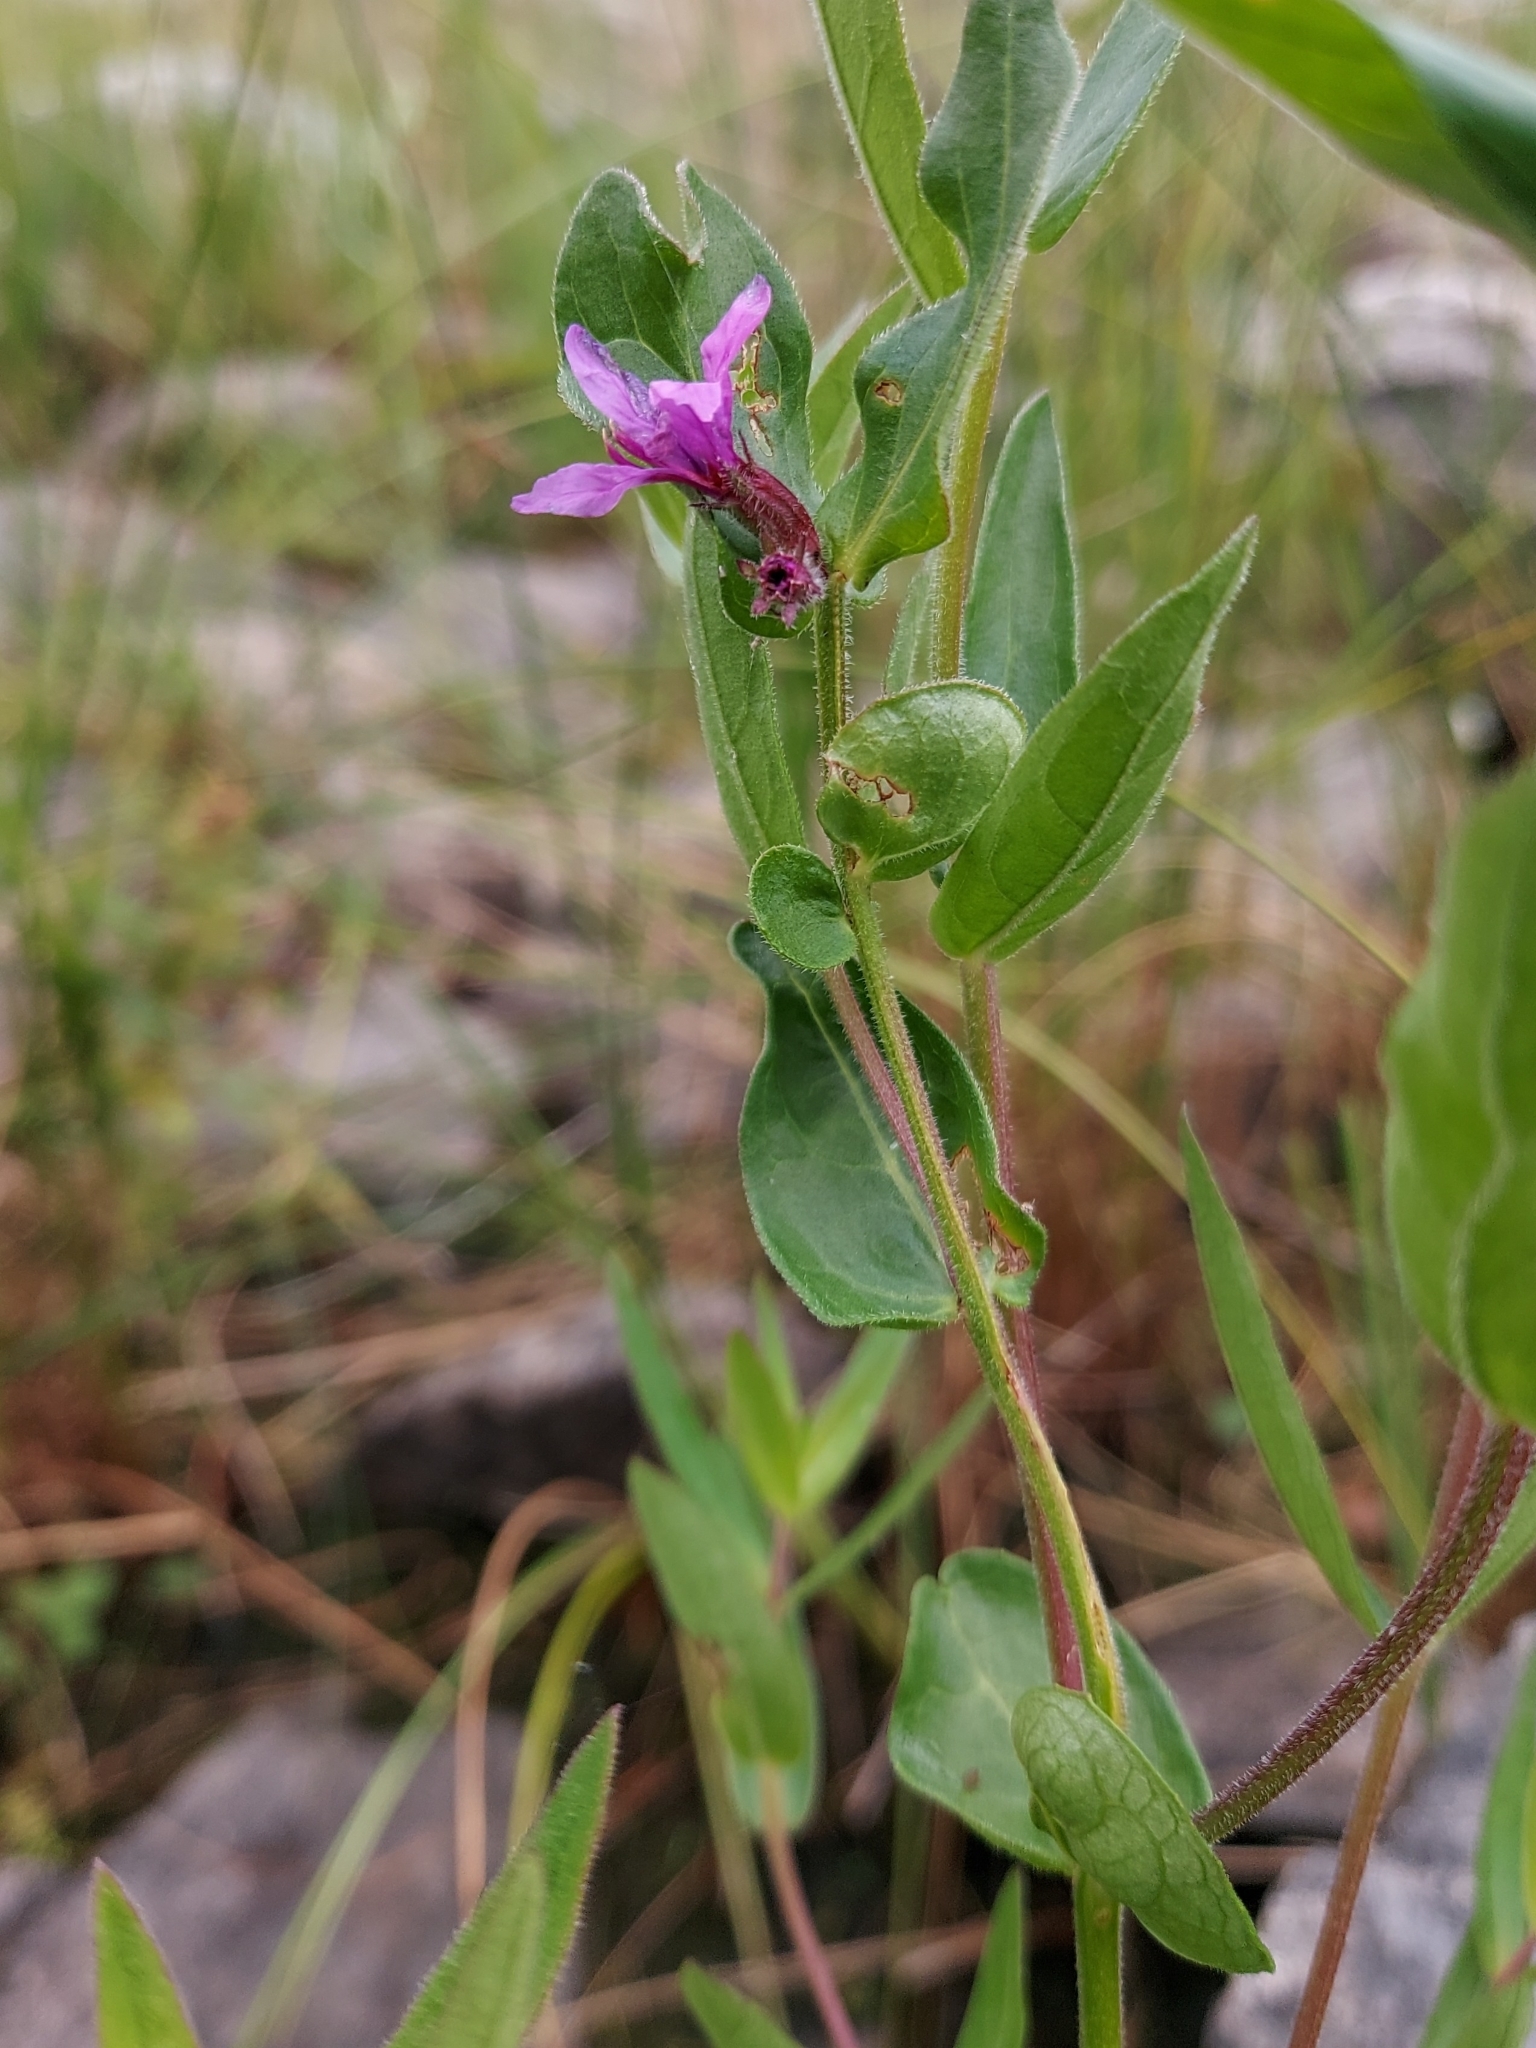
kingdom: Plantae
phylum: Tracheophyta
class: Magnoliopsida
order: Myrtales
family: Lythraceae
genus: Lythrum
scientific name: Lythrum salicaria
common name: Purple loosestrife
